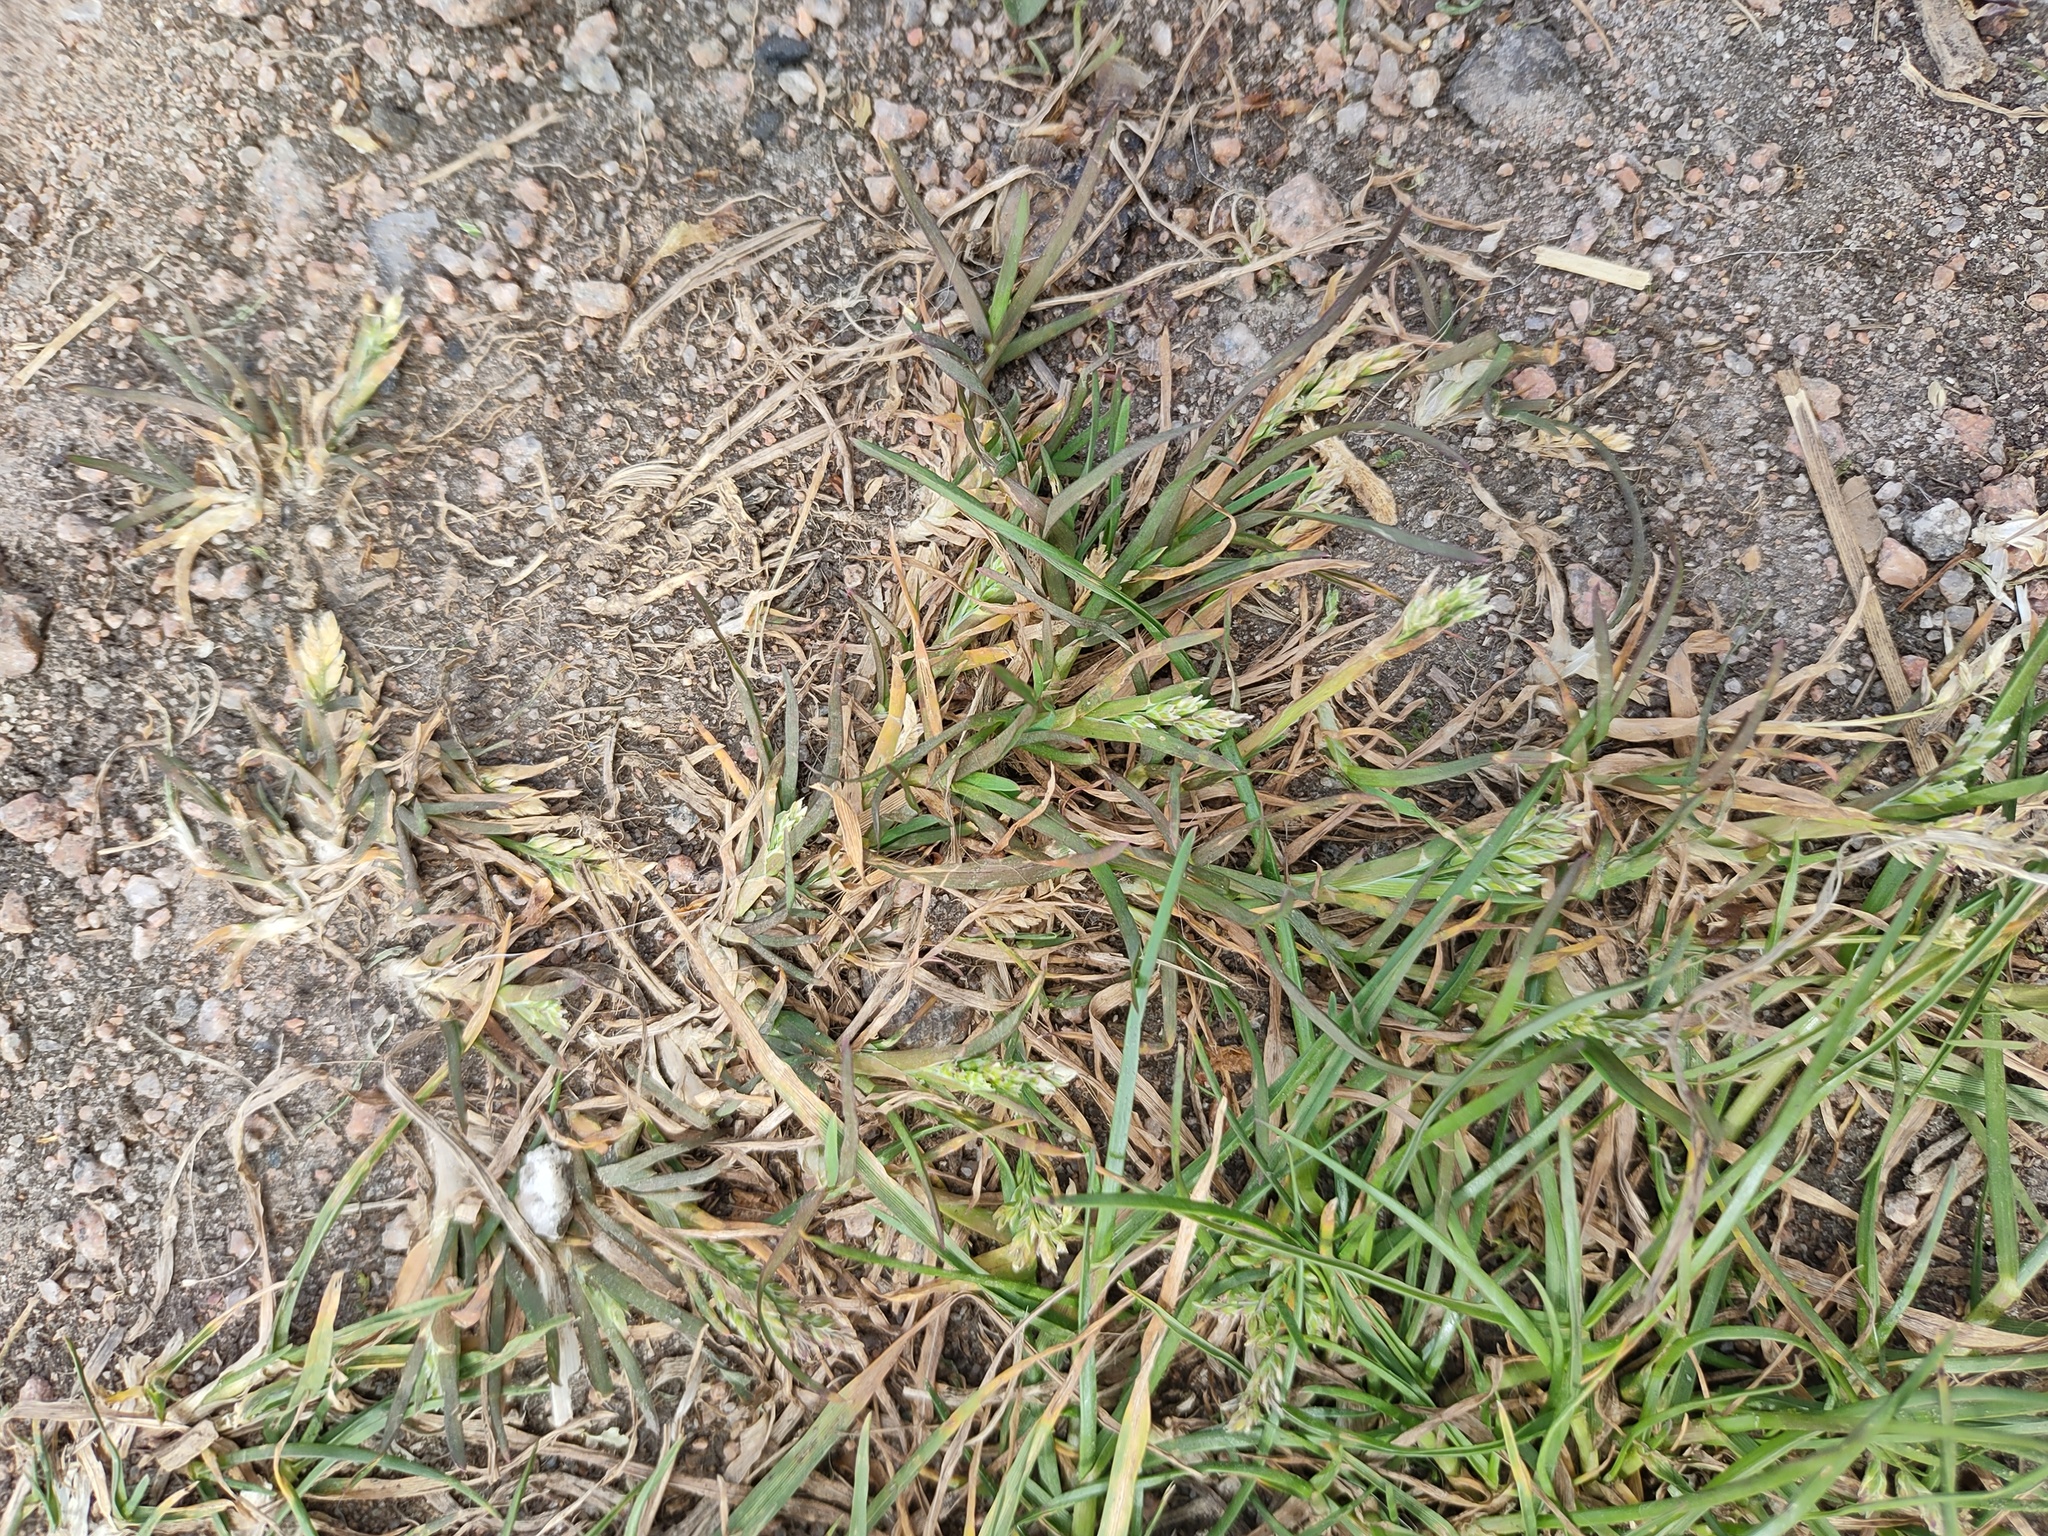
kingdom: Plantae
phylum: Tracheophyta
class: Liliopsida
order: Poales
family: Poaceae
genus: Poa
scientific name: Poa annua
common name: Annual bluegrass
